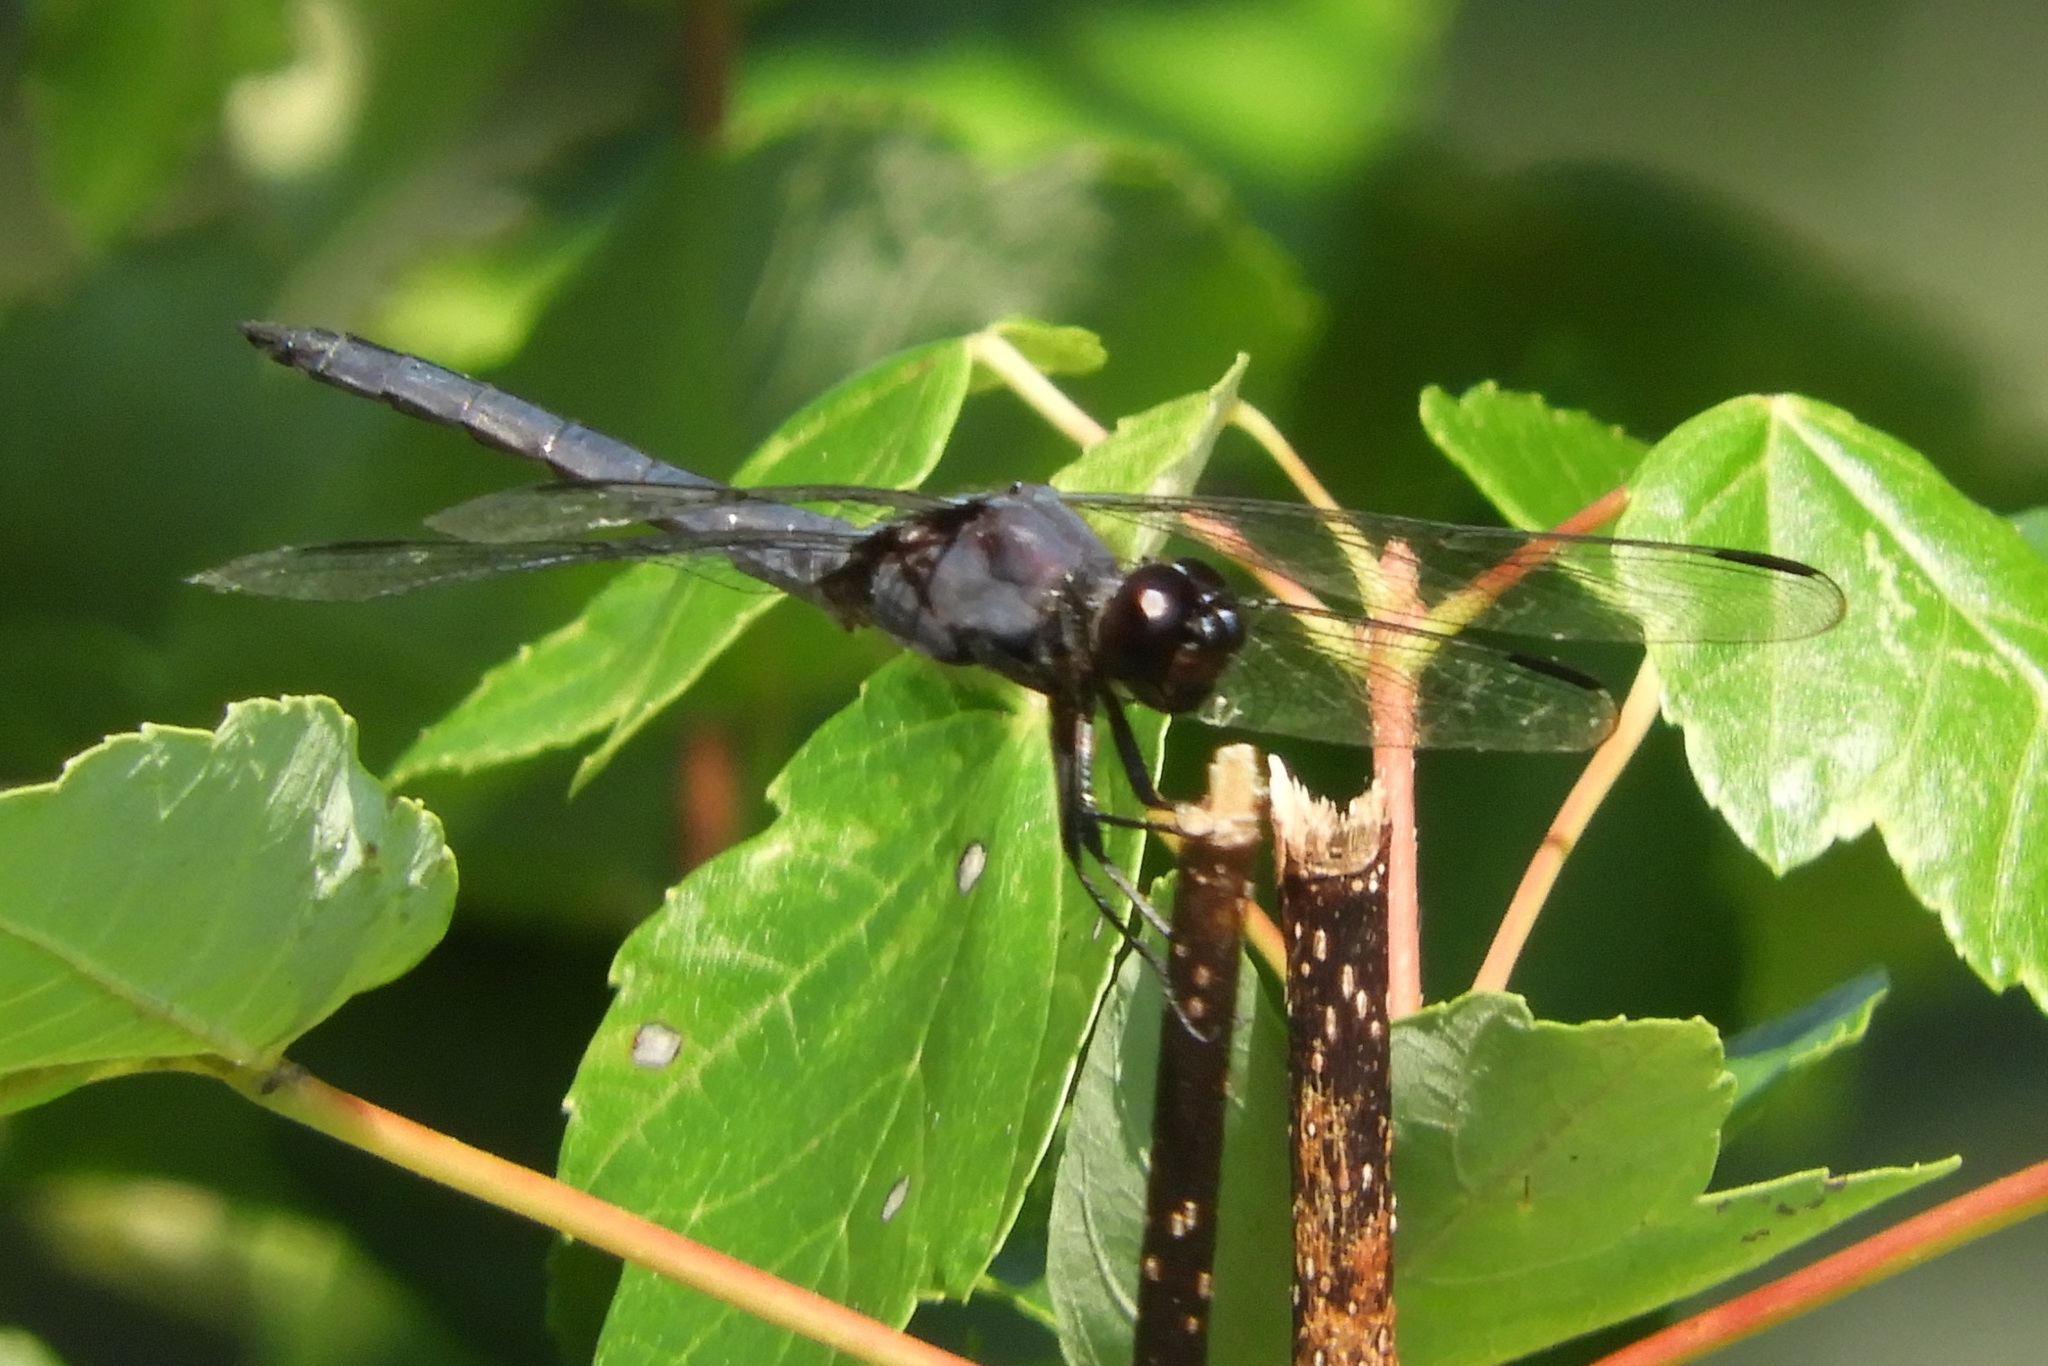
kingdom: Animalia
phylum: Arthropoda
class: Insecta
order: Odonata
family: Libellulidae
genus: Libellula
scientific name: Libellula incesta
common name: Slaty skimmer
